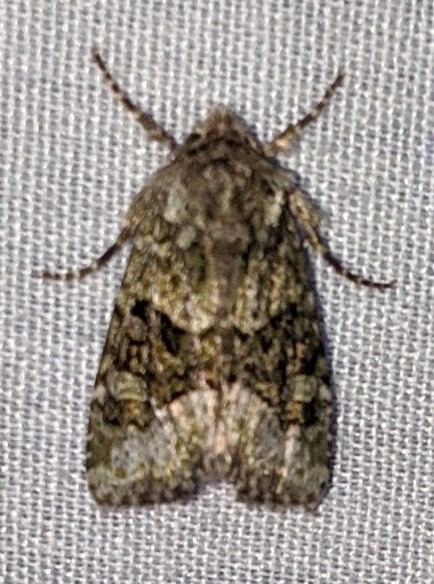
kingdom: Animalia
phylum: Arthropoda
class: Insecta
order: Lepidoptera
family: Noctuidae
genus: Lacinipolia
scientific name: Lacinipolia olivacea
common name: Olive arches moth
